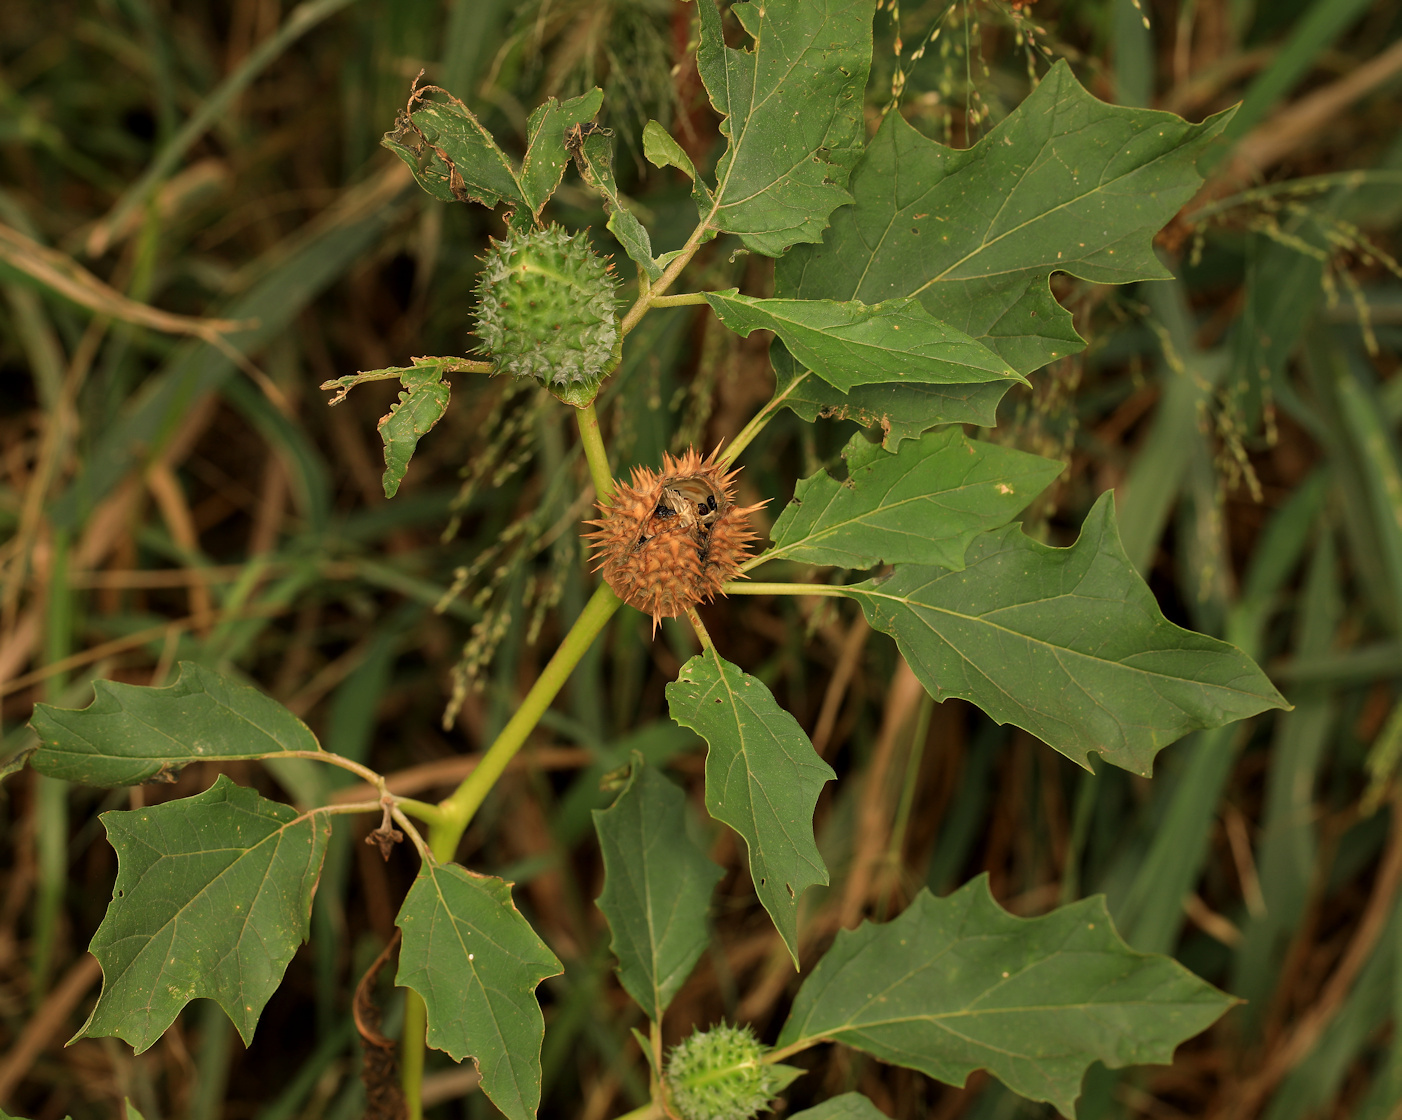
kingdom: Plantae
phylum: Tracheophyta
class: Magnoliopsida
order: Solanales
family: Solanaceae
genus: Datura
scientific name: Datura stramonium
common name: Thorn-apple
